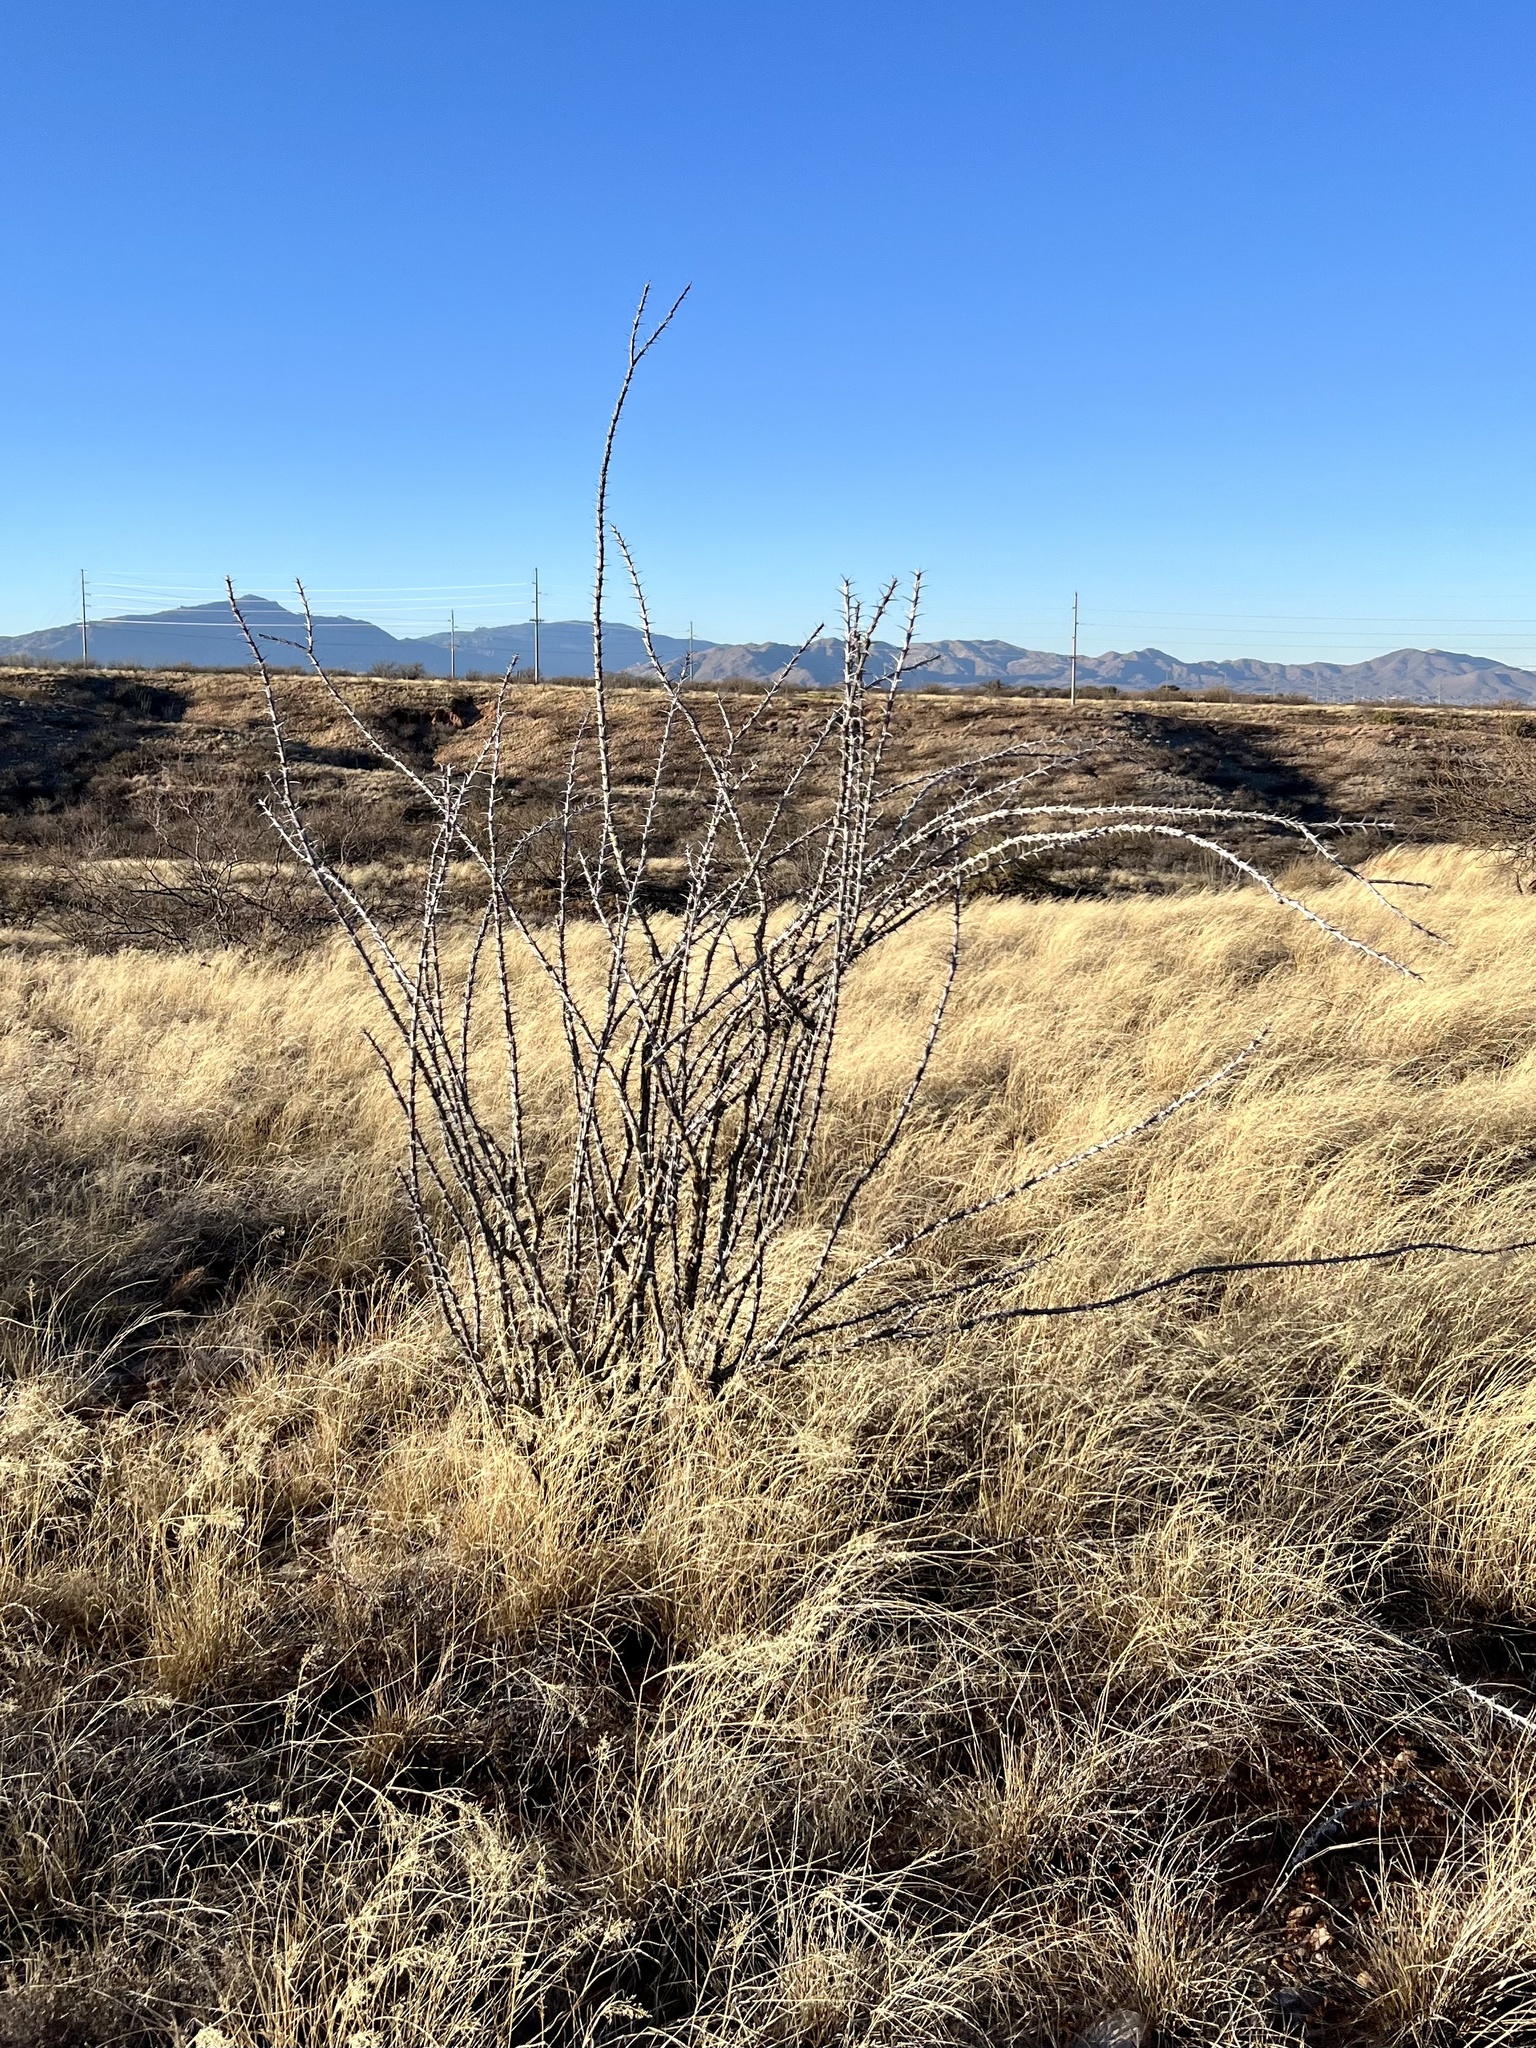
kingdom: Plantae
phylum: Tracheophyta
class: Magnoliopsida
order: Ericales
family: Fouquieriaceae
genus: Fouquieria
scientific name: Fouquieria splendens
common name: Vine-cactus
